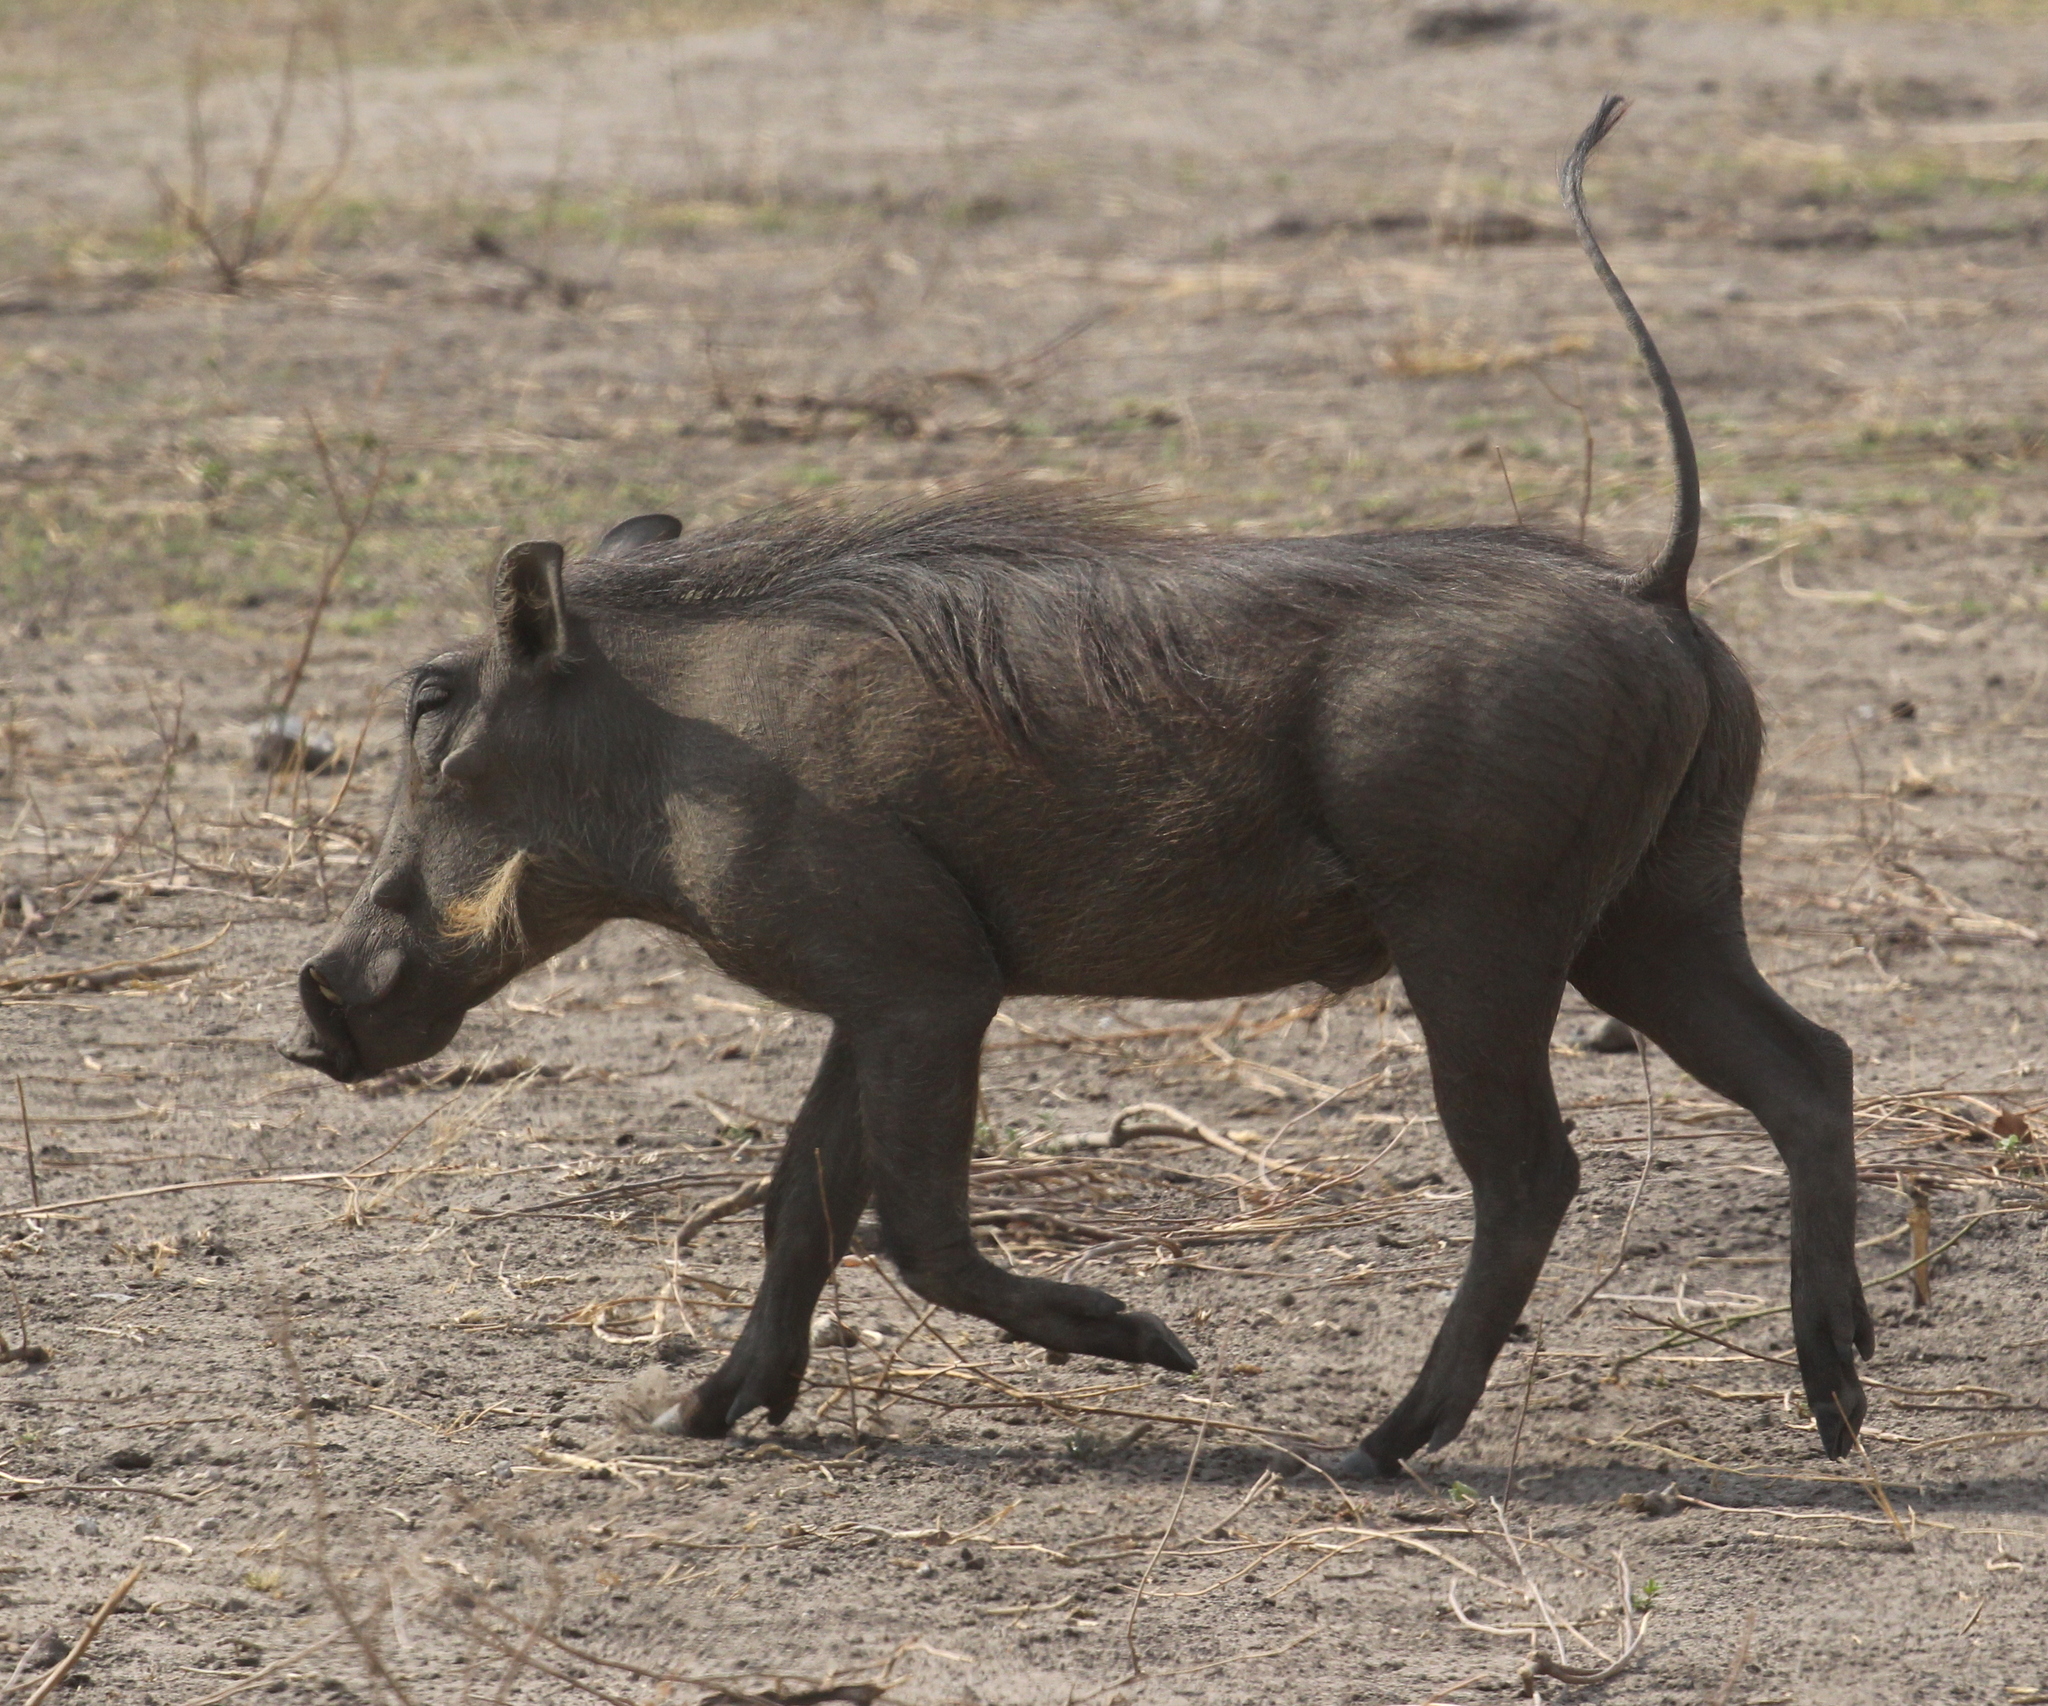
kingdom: Animalia
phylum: Chordata
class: Mammalia
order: Artiodactyla
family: Suidae
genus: Phacochoerus
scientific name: Phacochoerus africanus
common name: Common warthog
